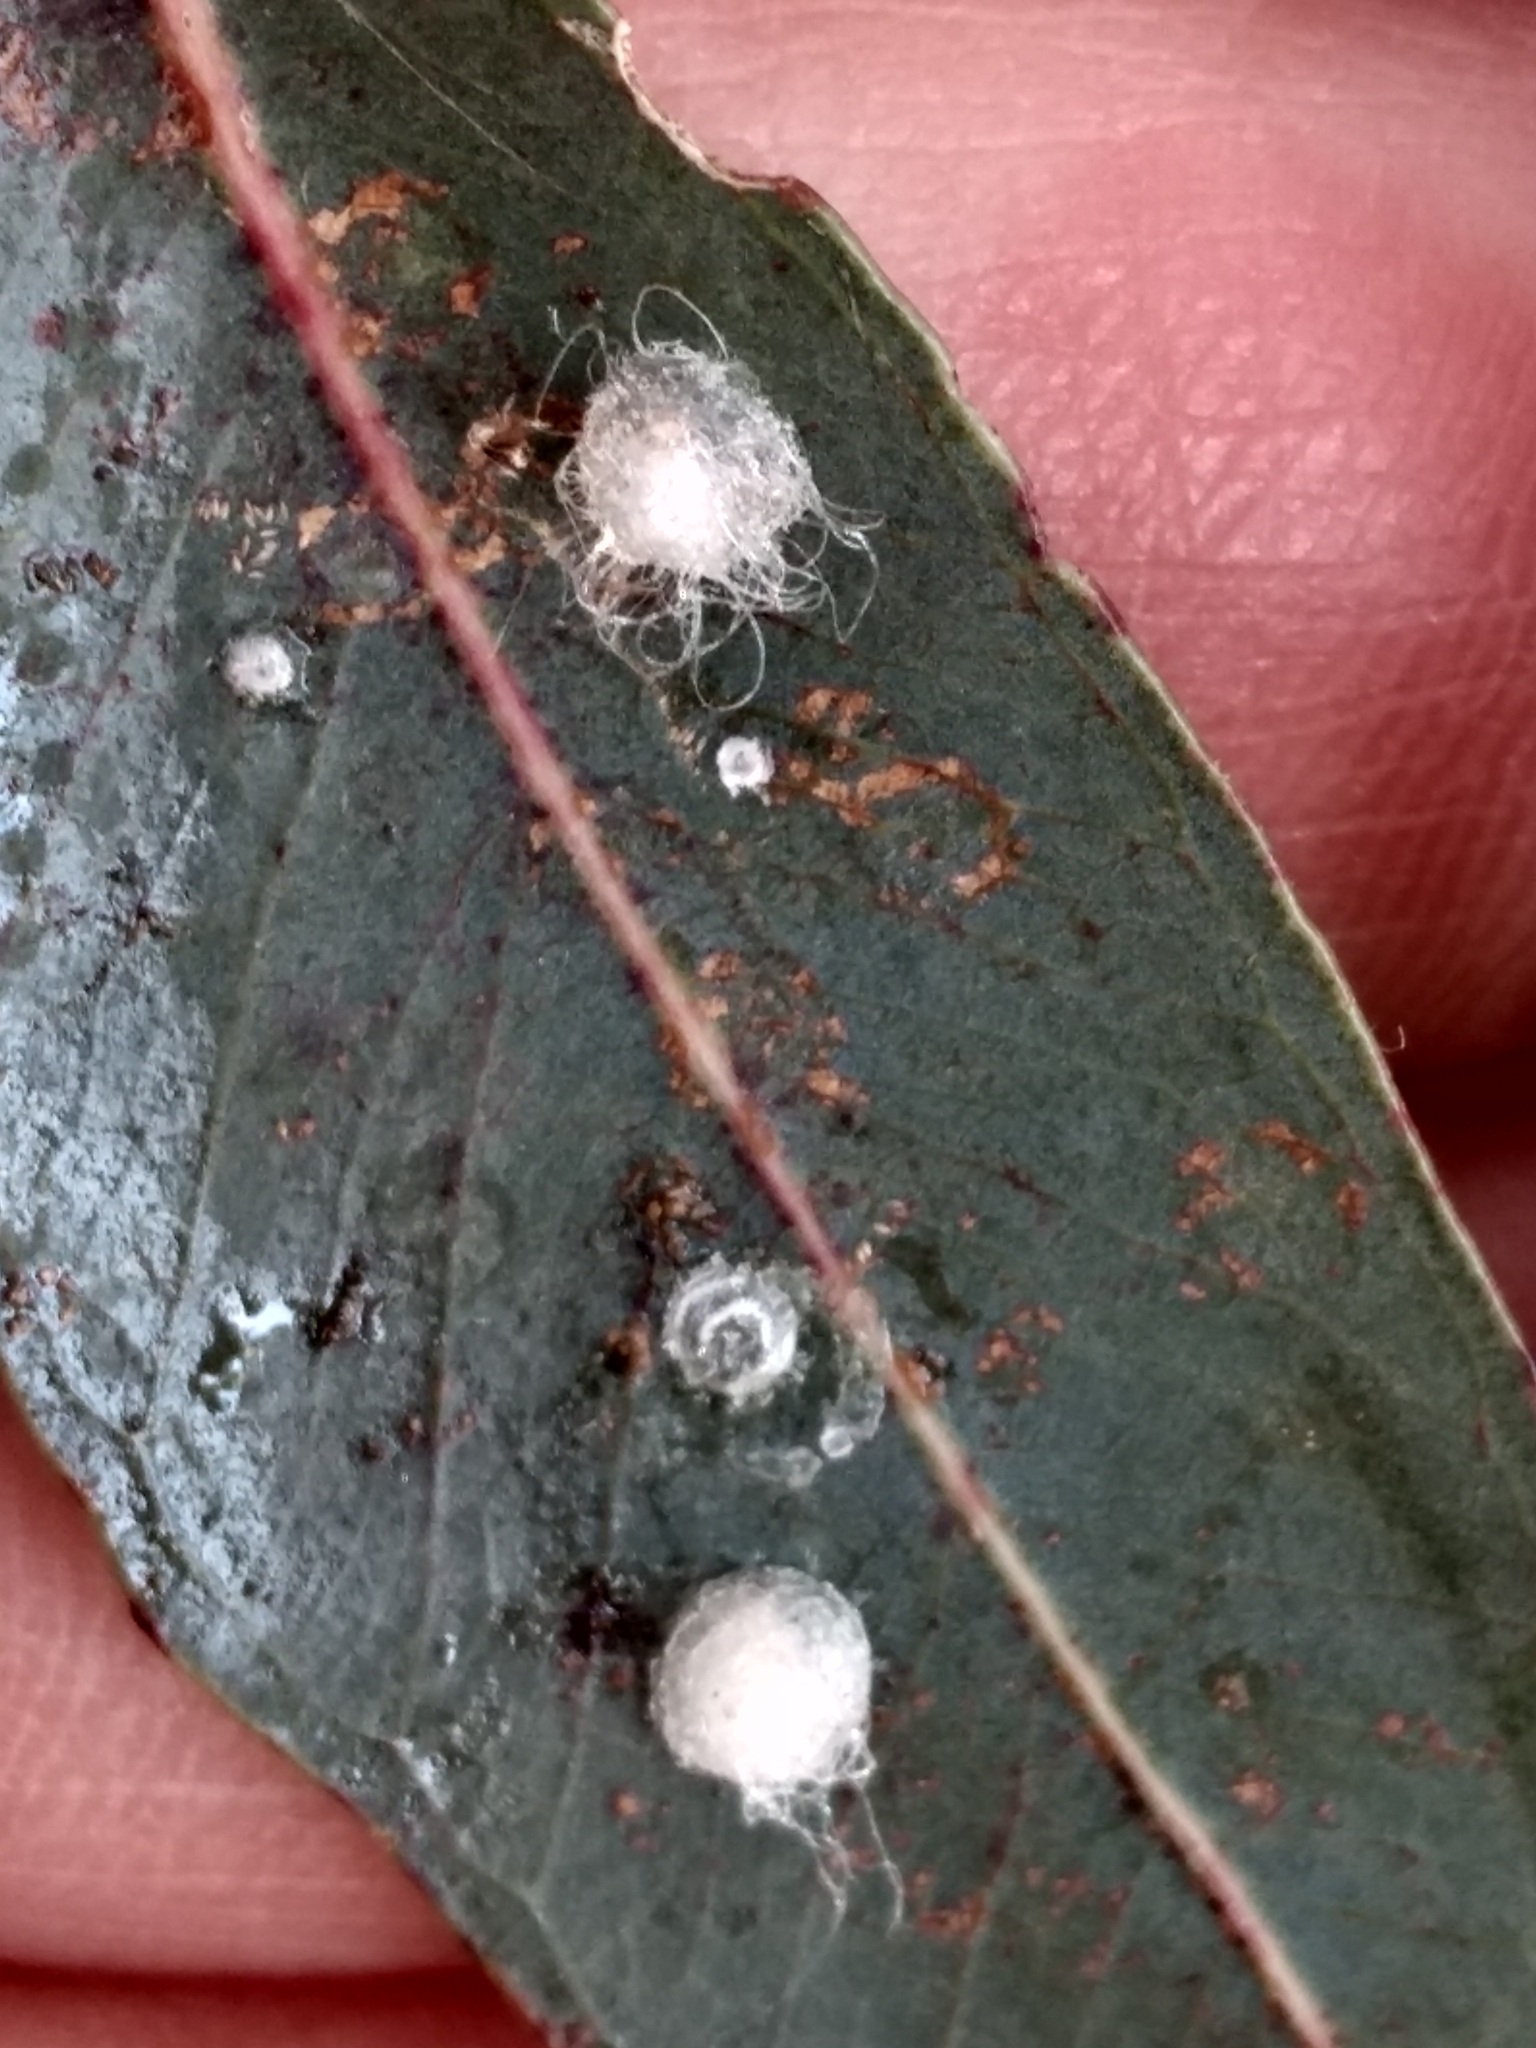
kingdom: Animalia
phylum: Arthropoda
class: Insecta
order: Hemiptera
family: Aphalaridae
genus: Glycaspis
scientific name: Glycaspis brimblecombei
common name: Red gum lerp psyllid
